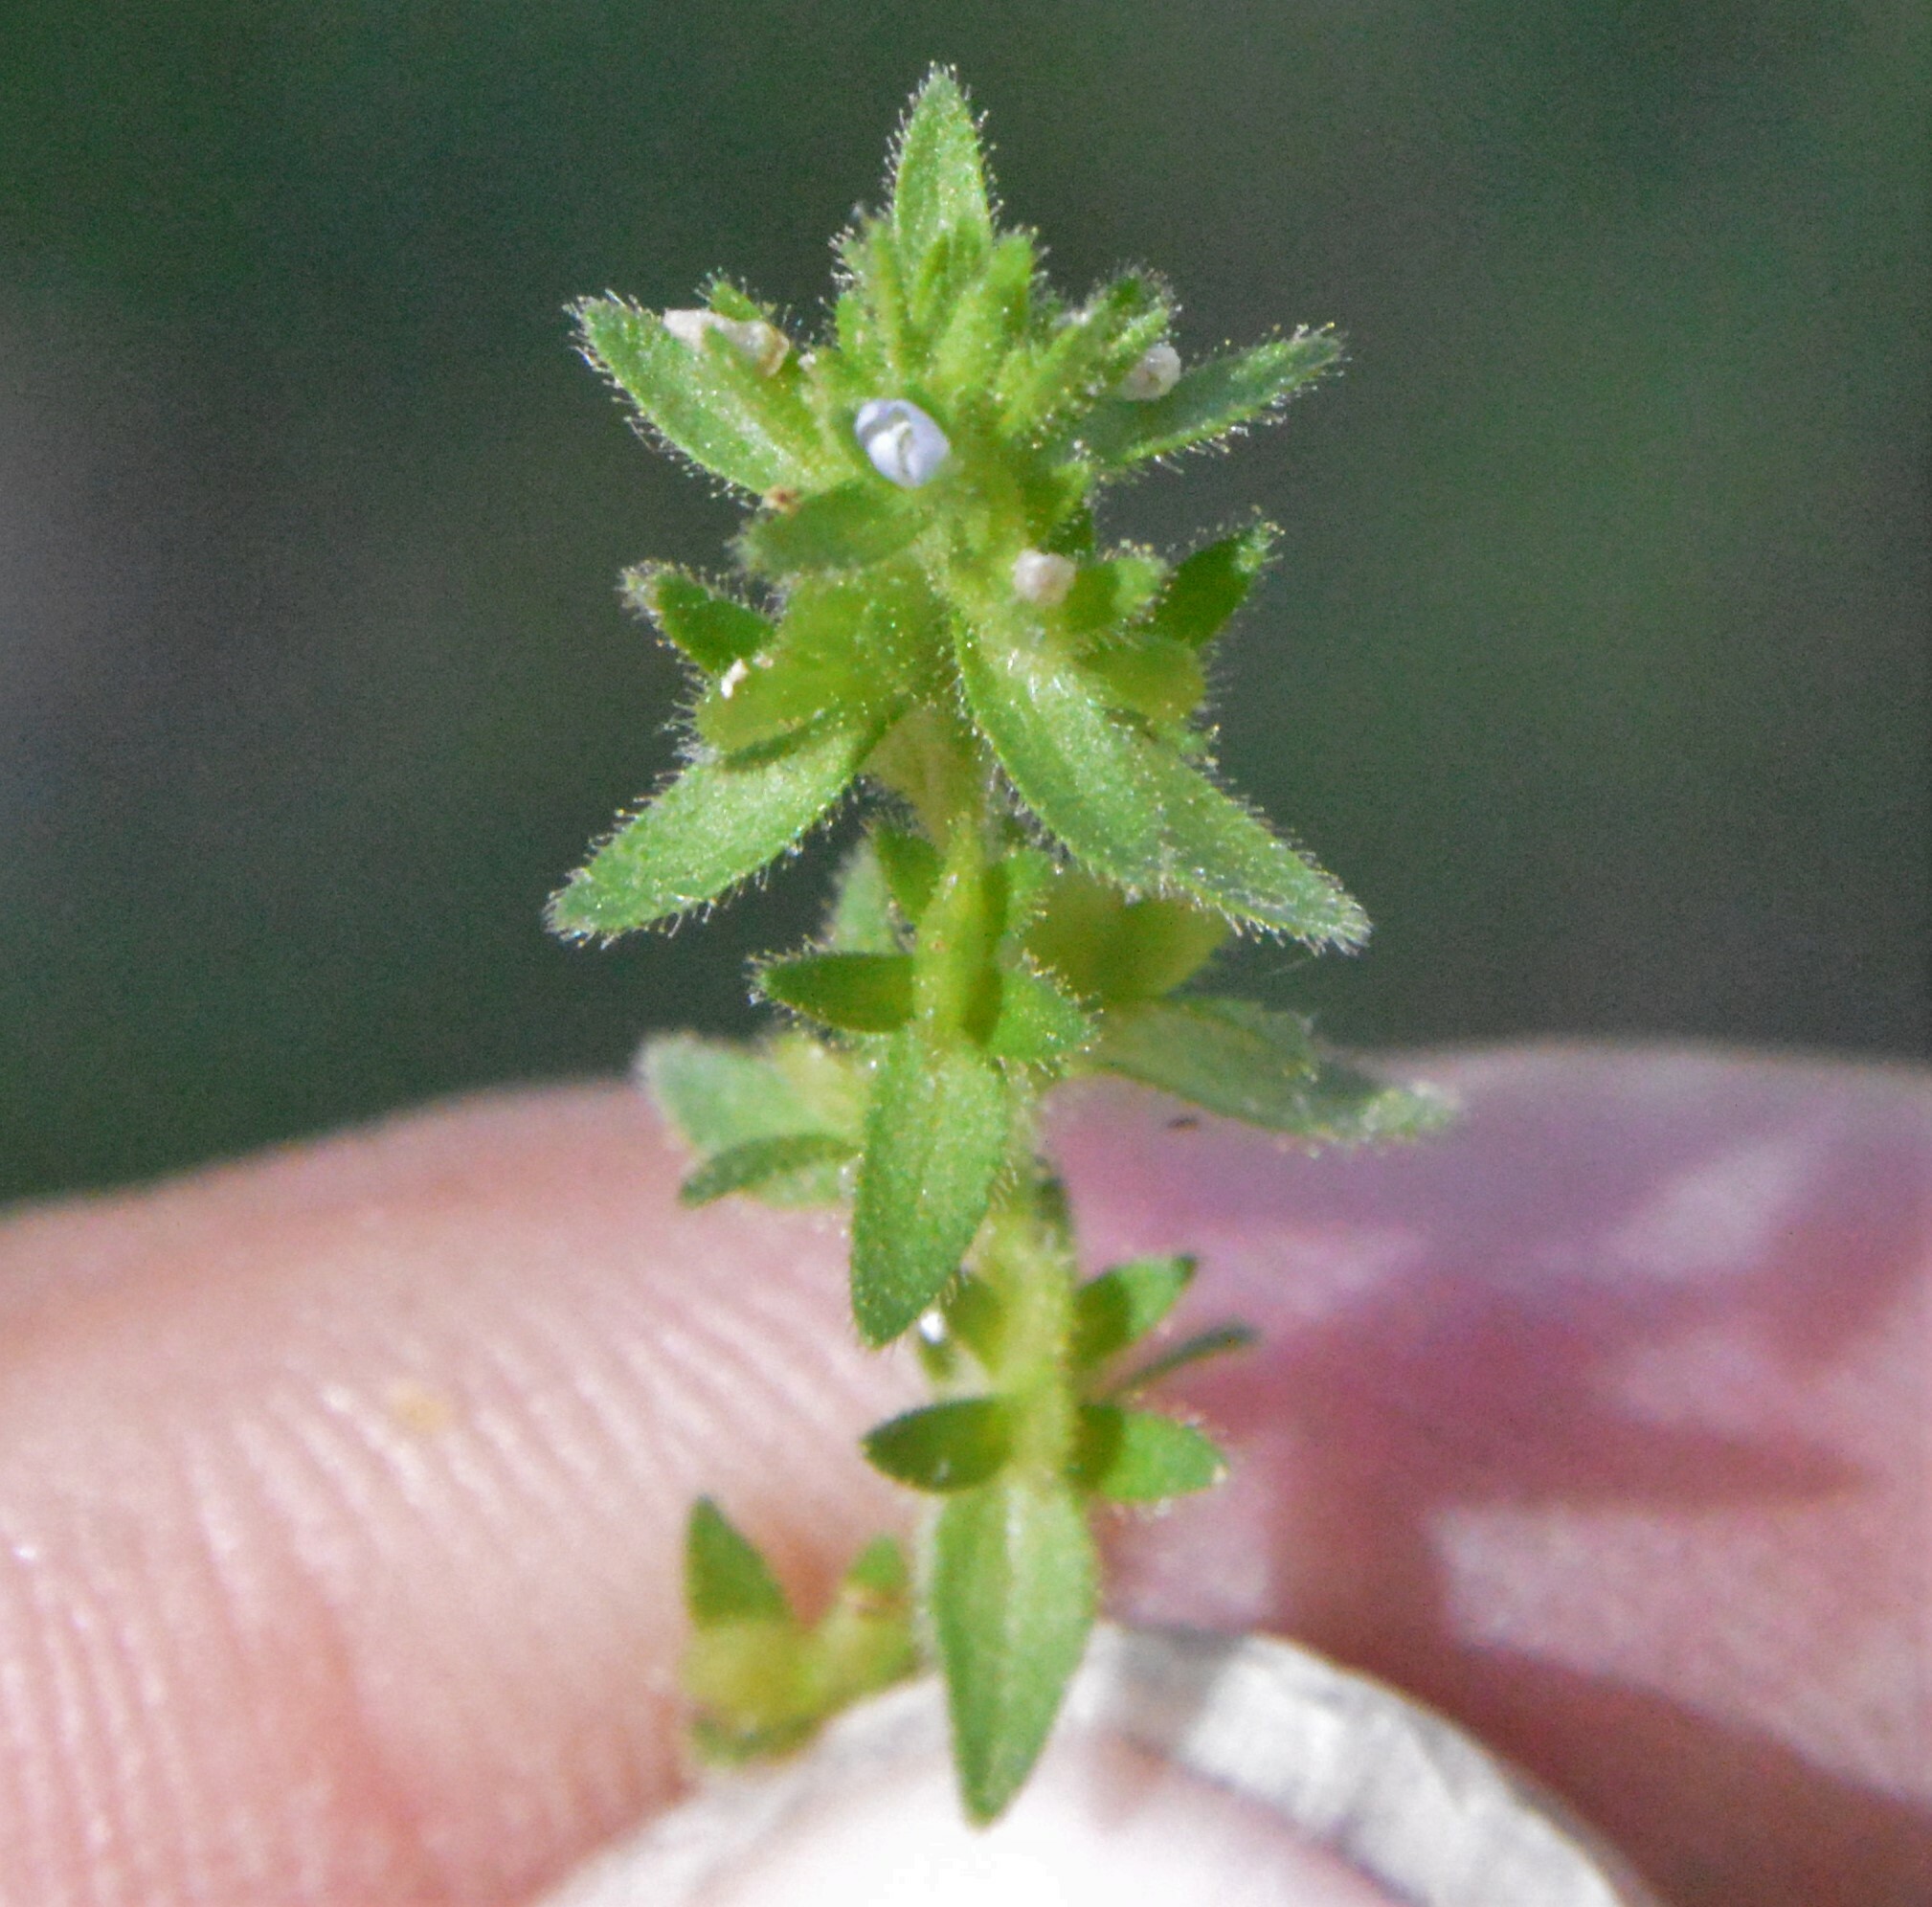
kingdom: Plantae
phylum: Tracheophyta
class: Magnoliopsida
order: Lamiales
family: Plantaginaceae
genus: Veronica
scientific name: Veronica arvensis
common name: Corn speedwell
